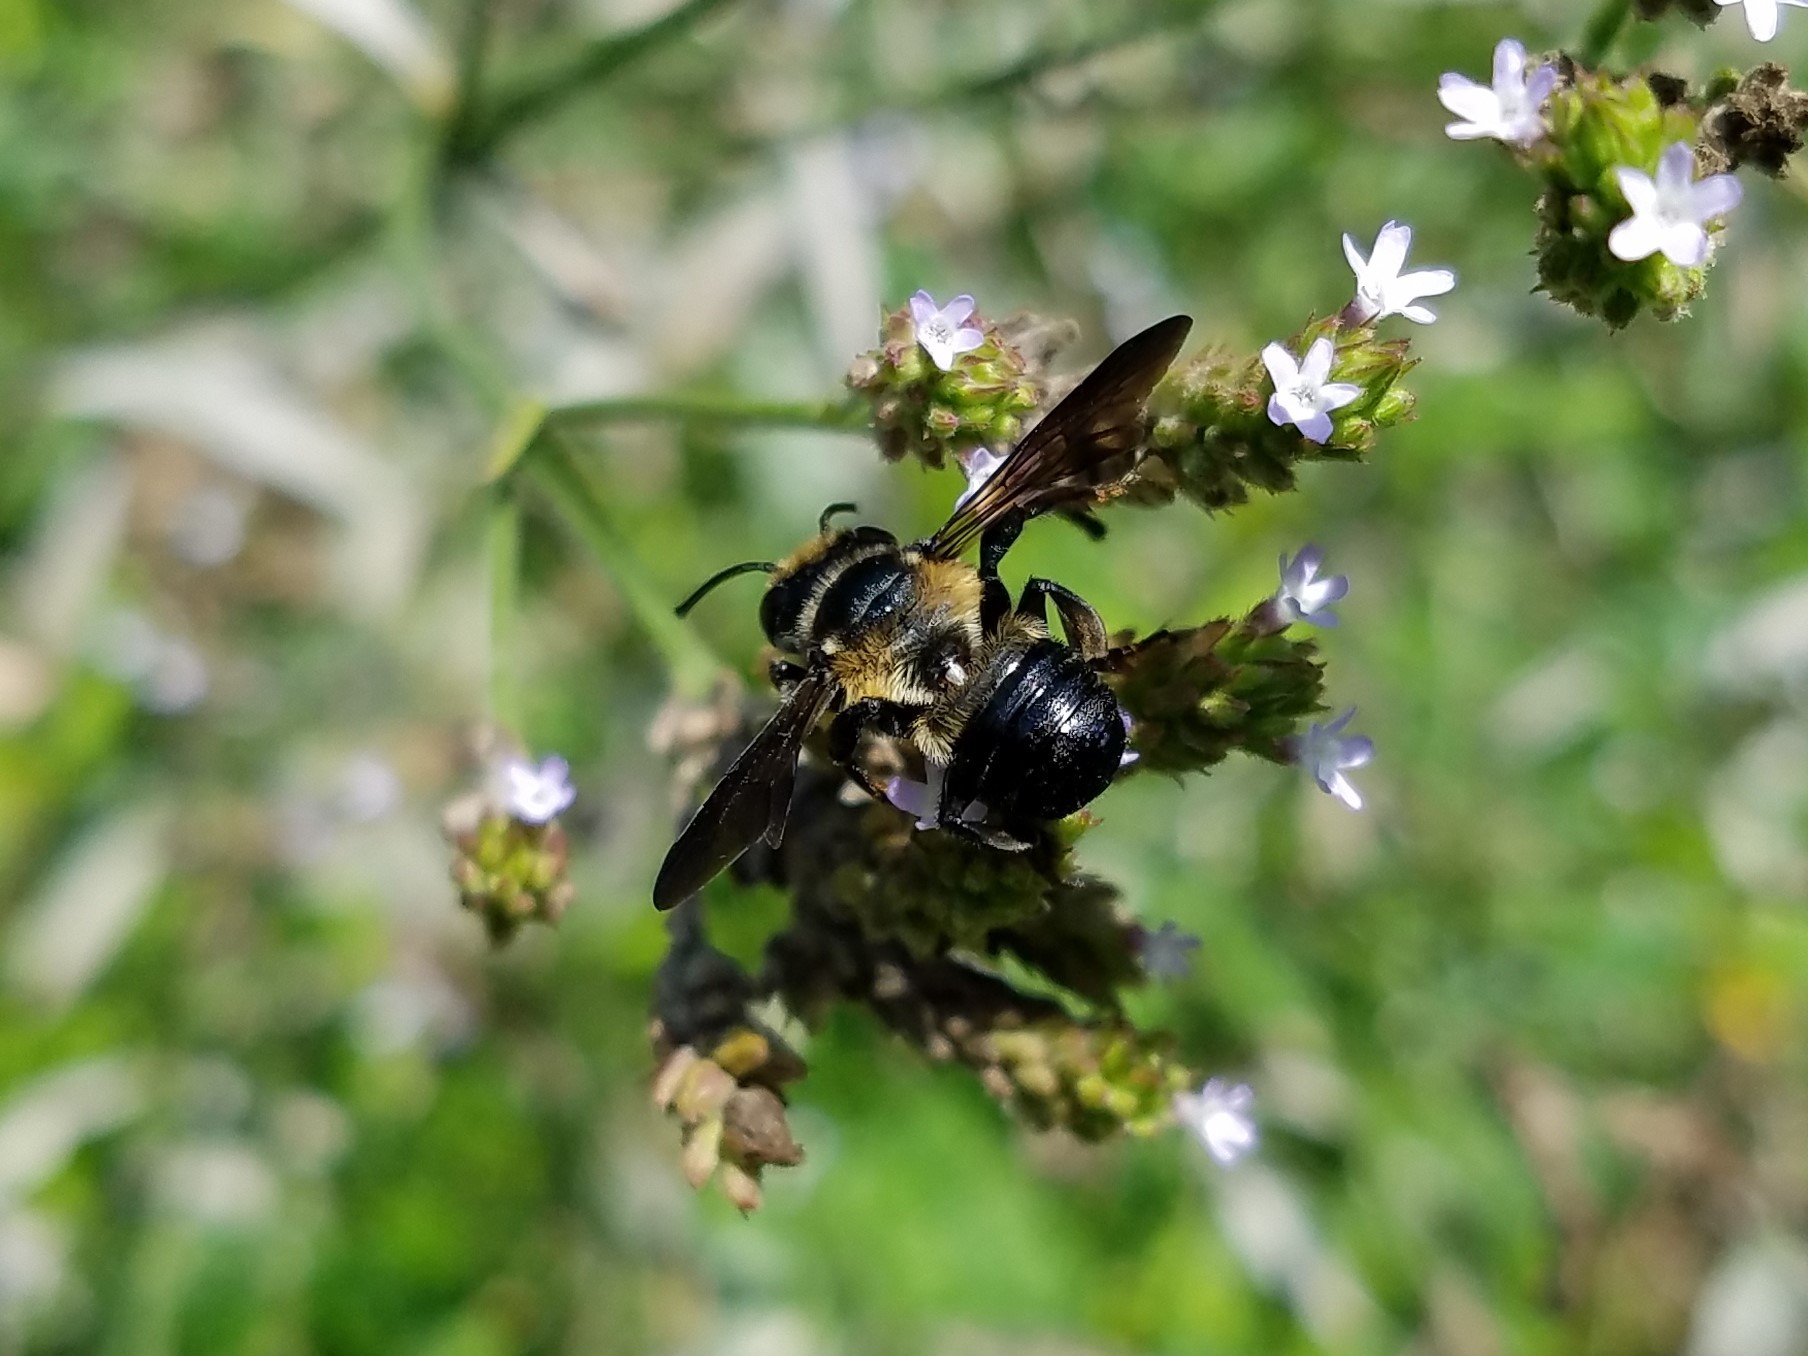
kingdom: Animalia
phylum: Arthropoda
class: Insecta
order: Hymenoptera
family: Megachilidae
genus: Megachile
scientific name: Megachile xylocopoides
